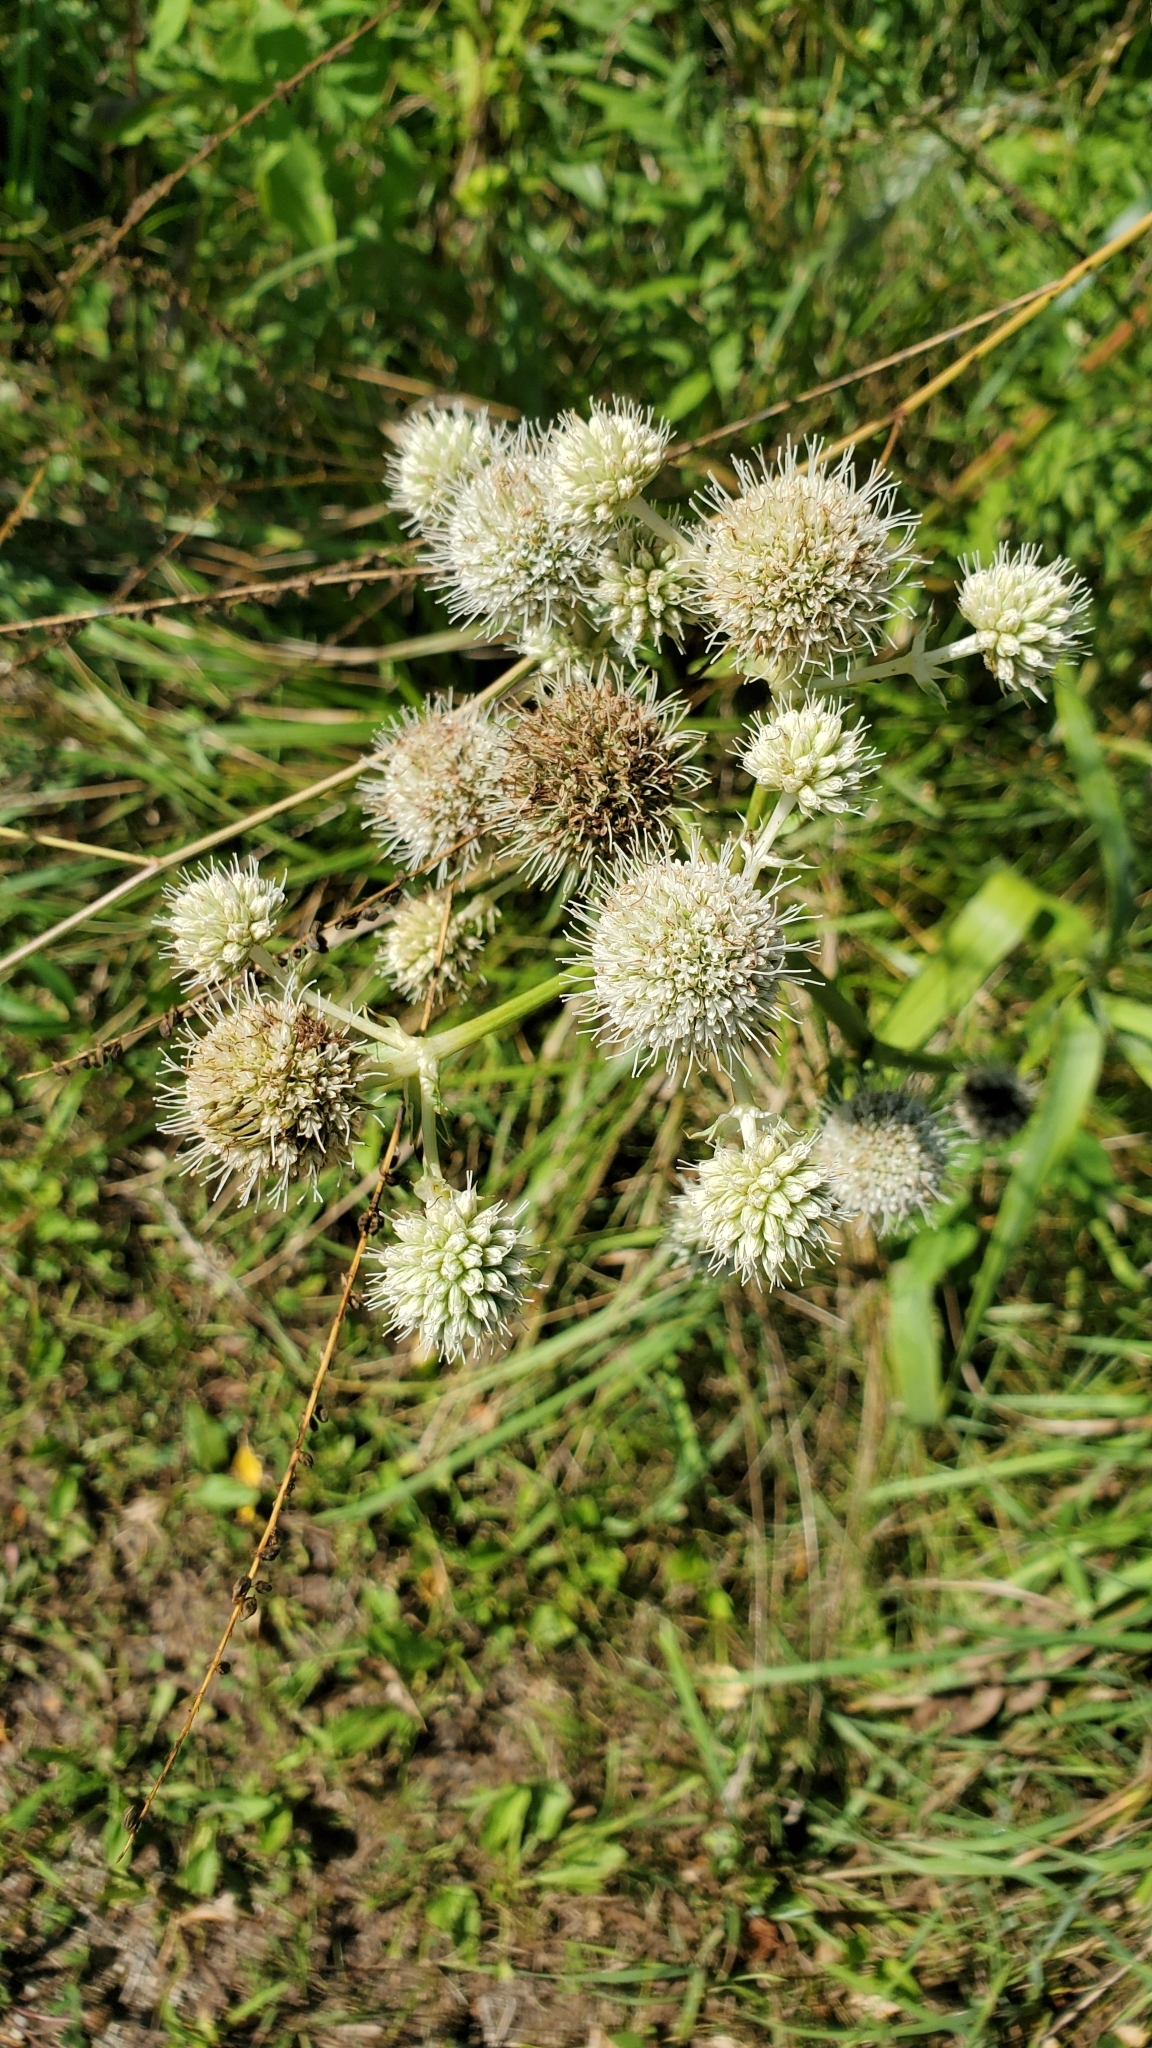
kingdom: Plantae
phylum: Tracheophyta
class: Magnoliopsida
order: Apiales
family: Apiaceae
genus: Eryngium
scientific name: Eryngium yuccifolium
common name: Button eryngo
